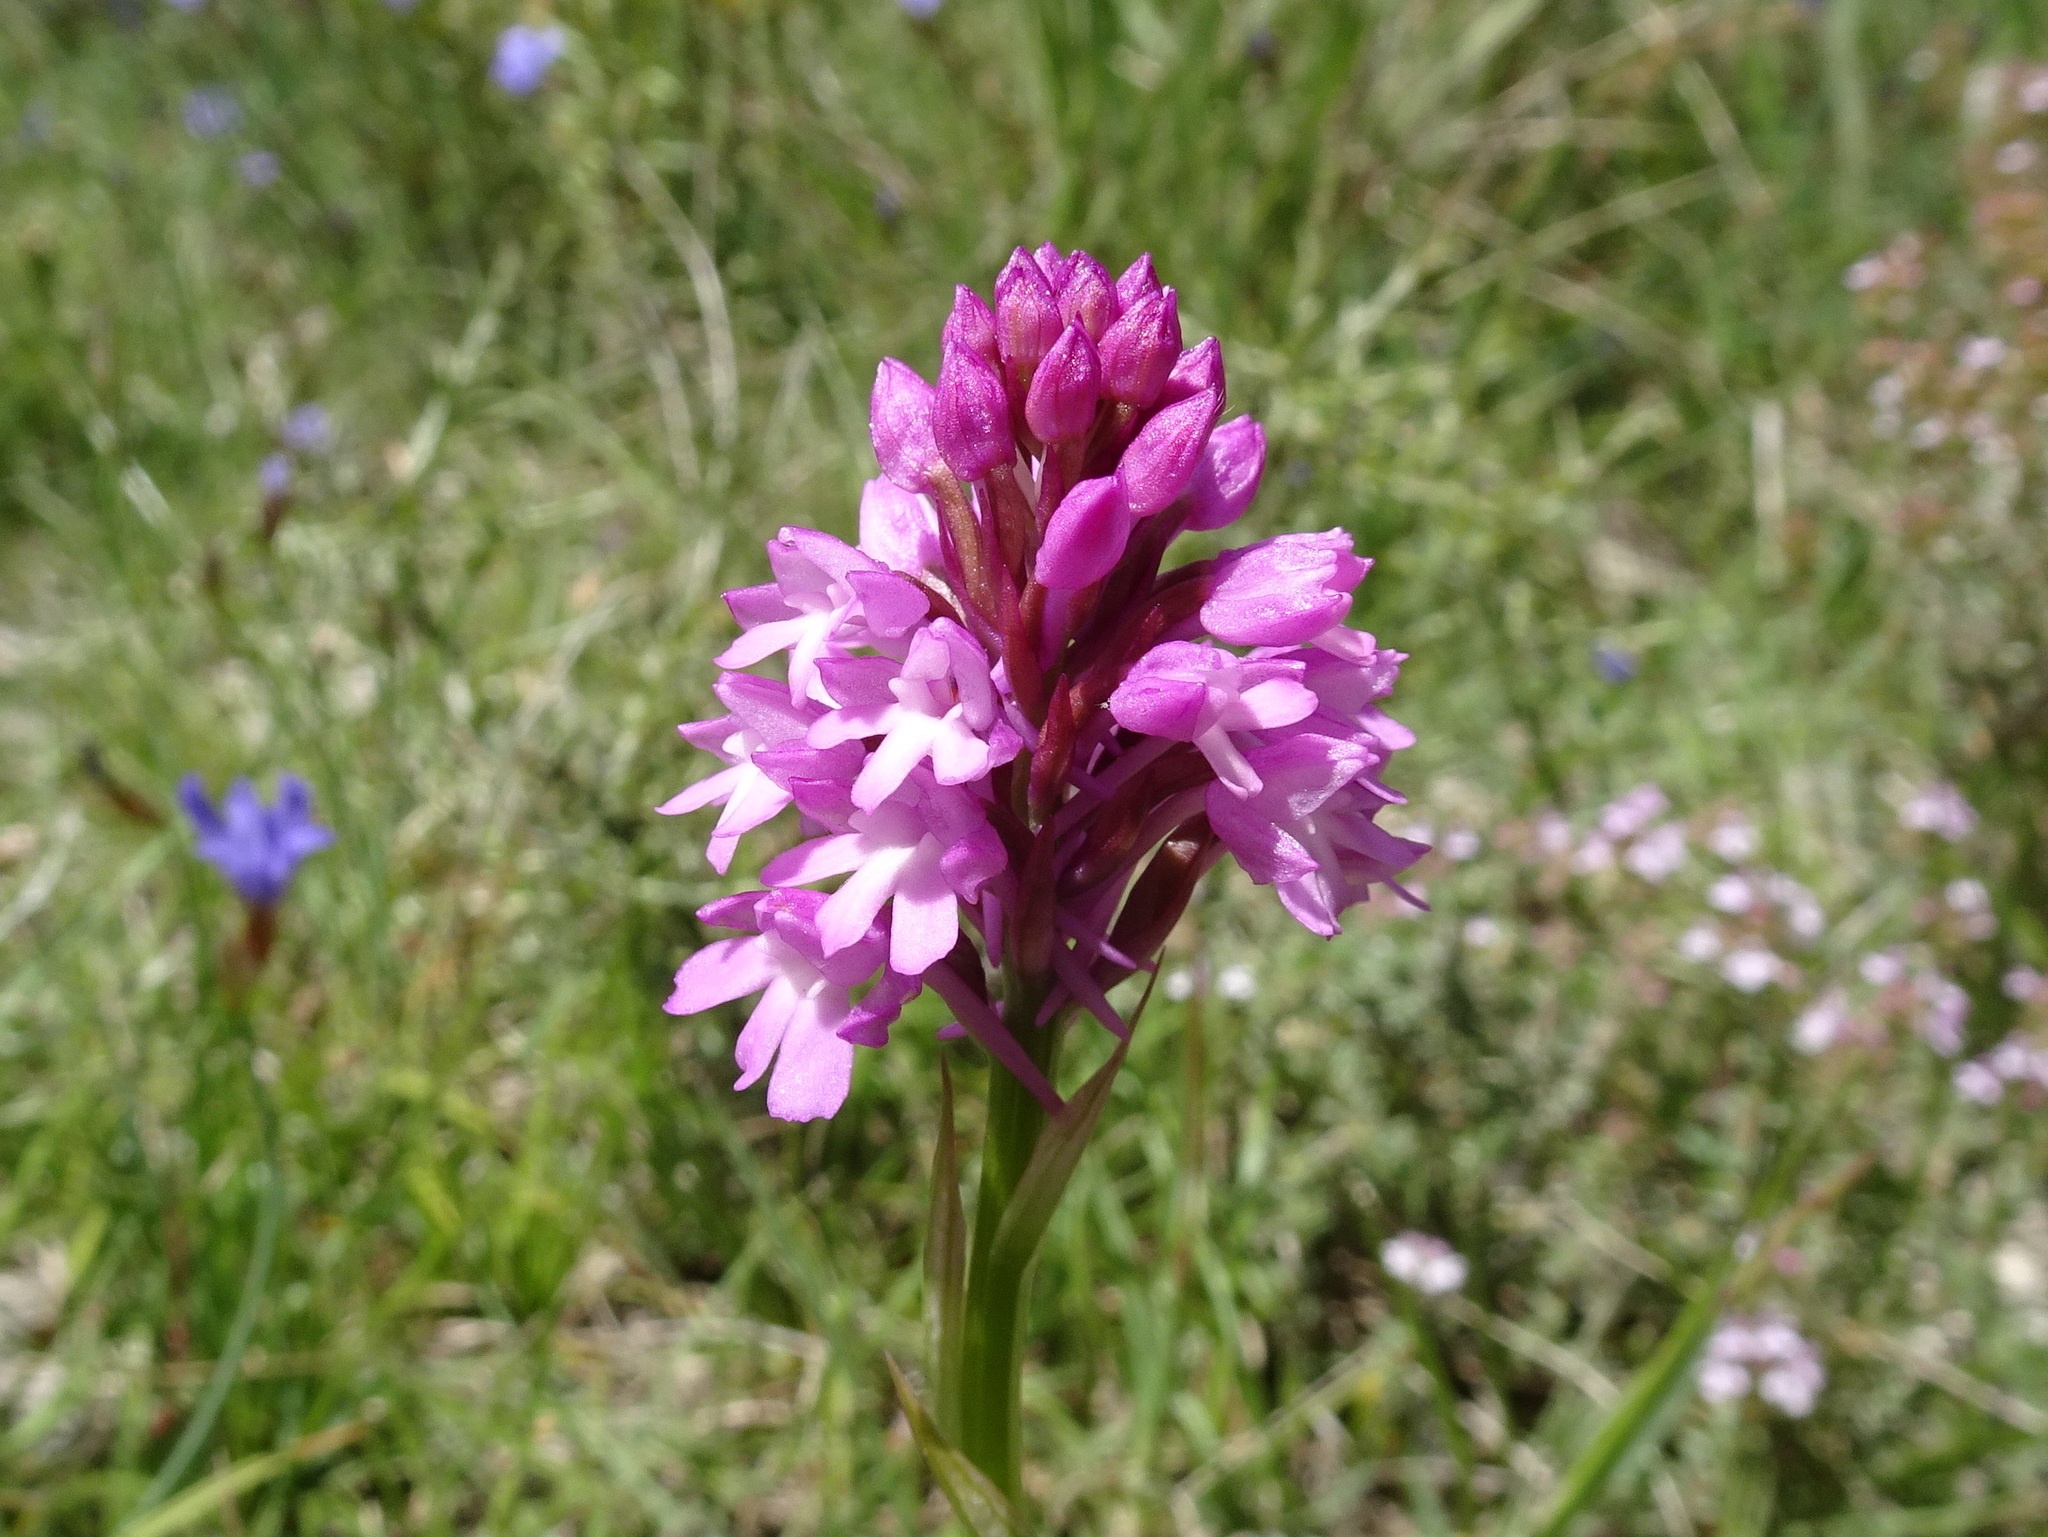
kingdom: Plantae
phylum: Tracheophyta
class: Liliopsida
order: Asparagales
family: Orchidaceae
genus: Anacamptis
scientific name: Anacamptis pyramidalis
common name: Pyramidal orchid
